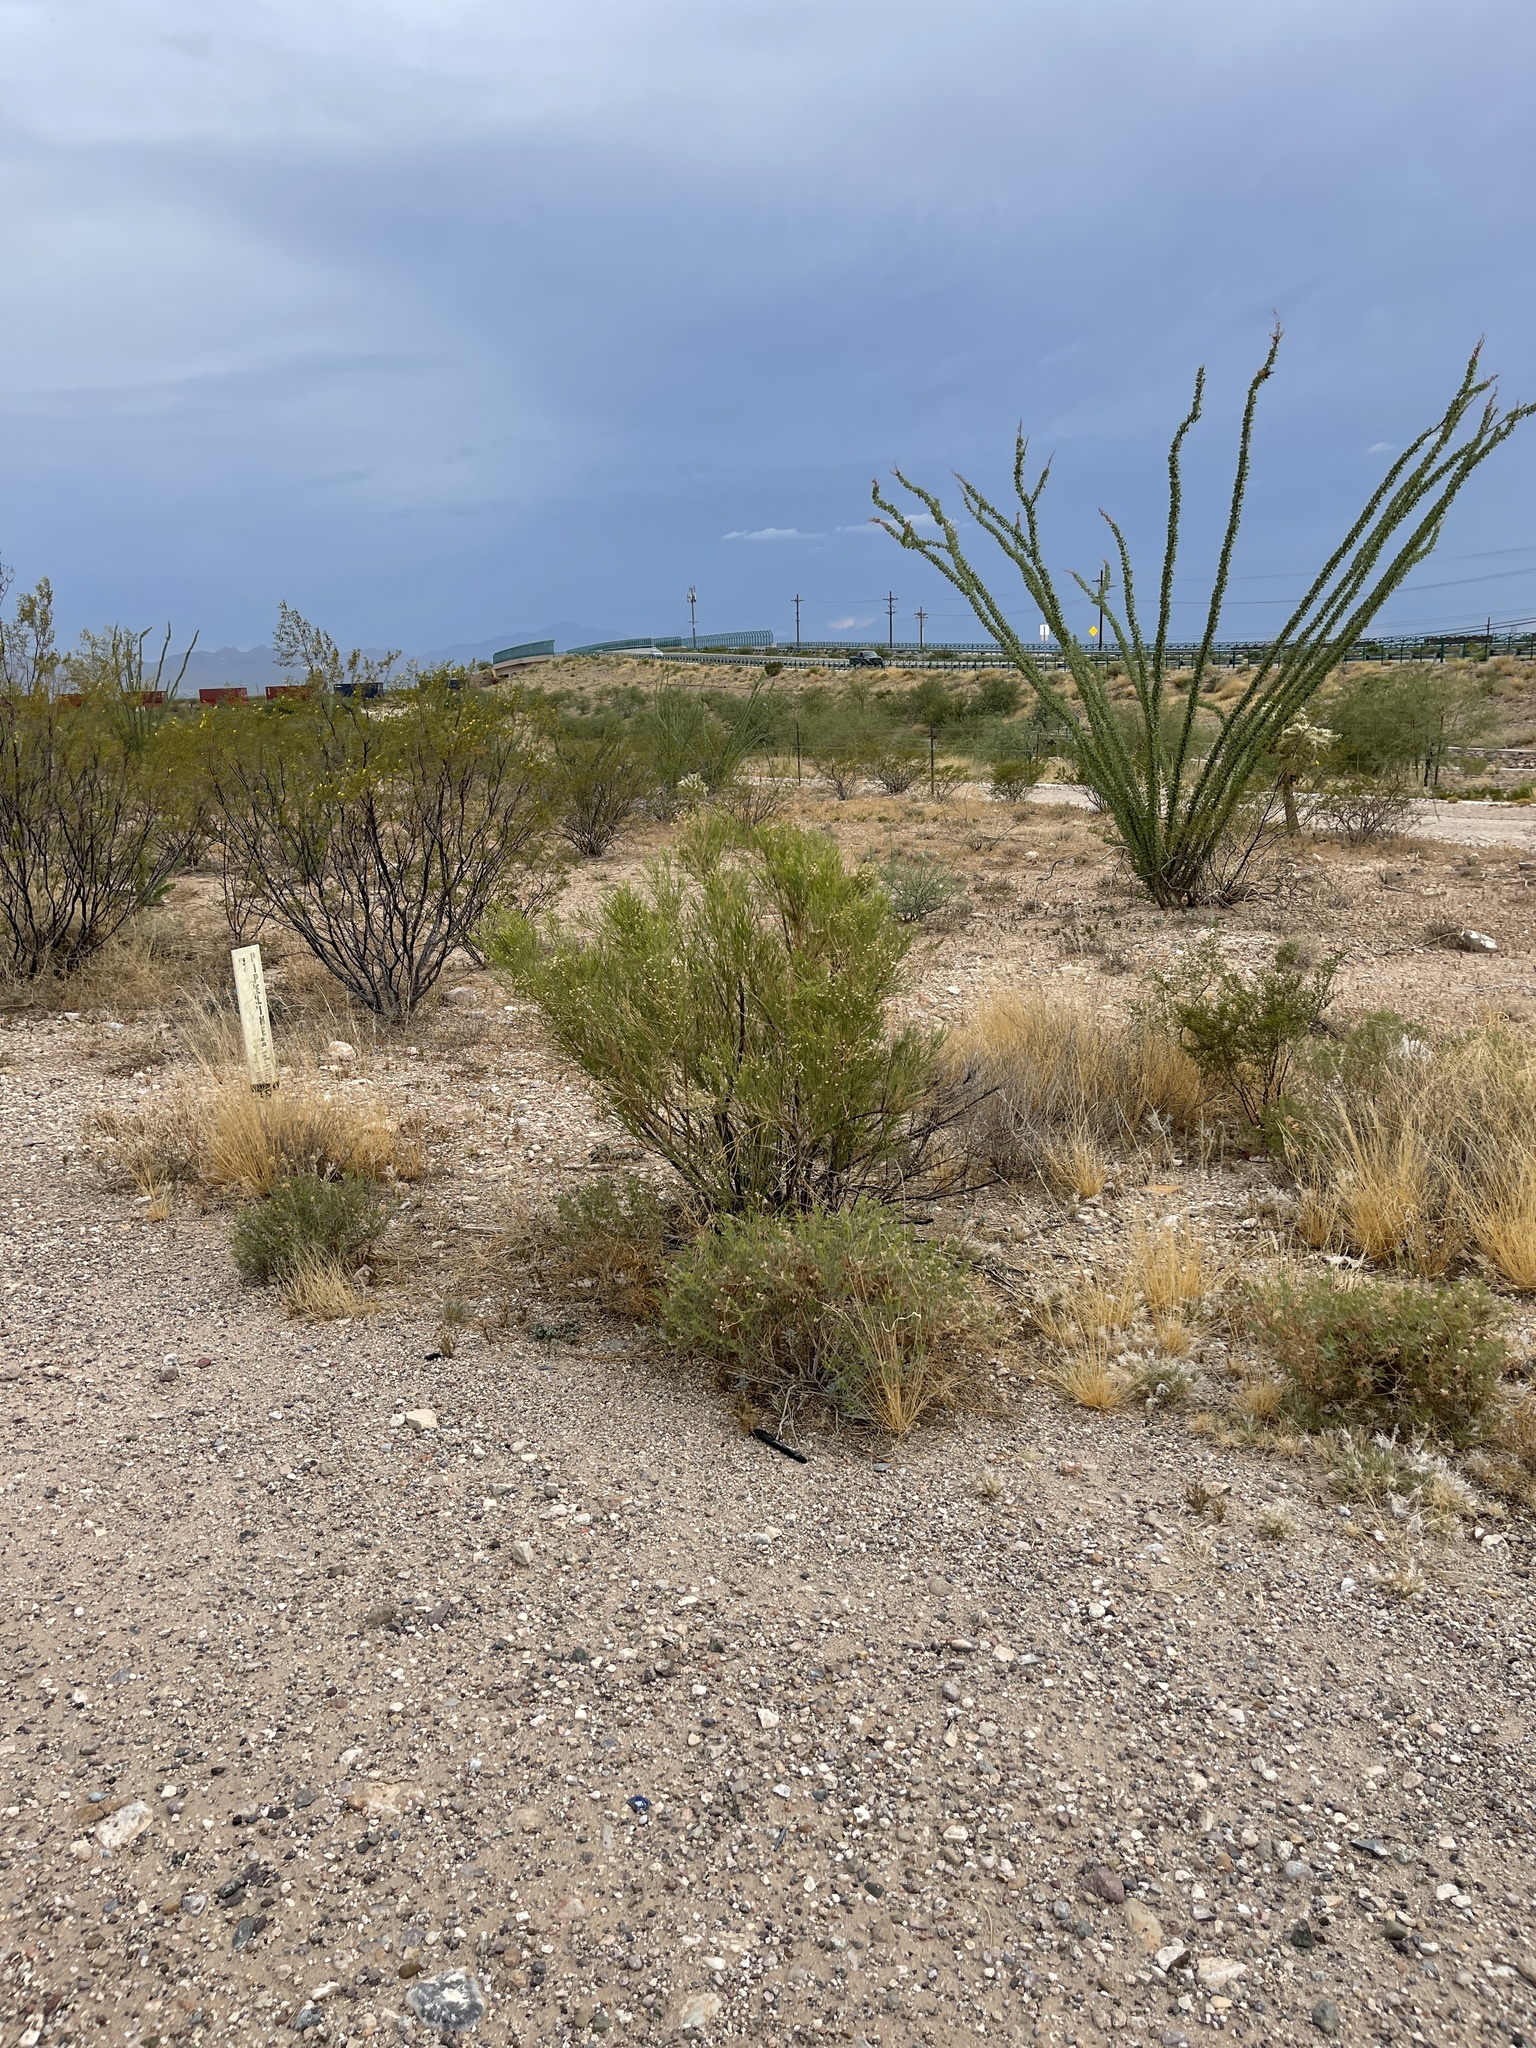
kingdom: Plantae
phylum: Tracheophyta
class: Magnoliopsida
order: Asterales
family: Asteraceae
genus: Baccharis
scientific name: Baccharis sarothroides
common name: Desert-broom
